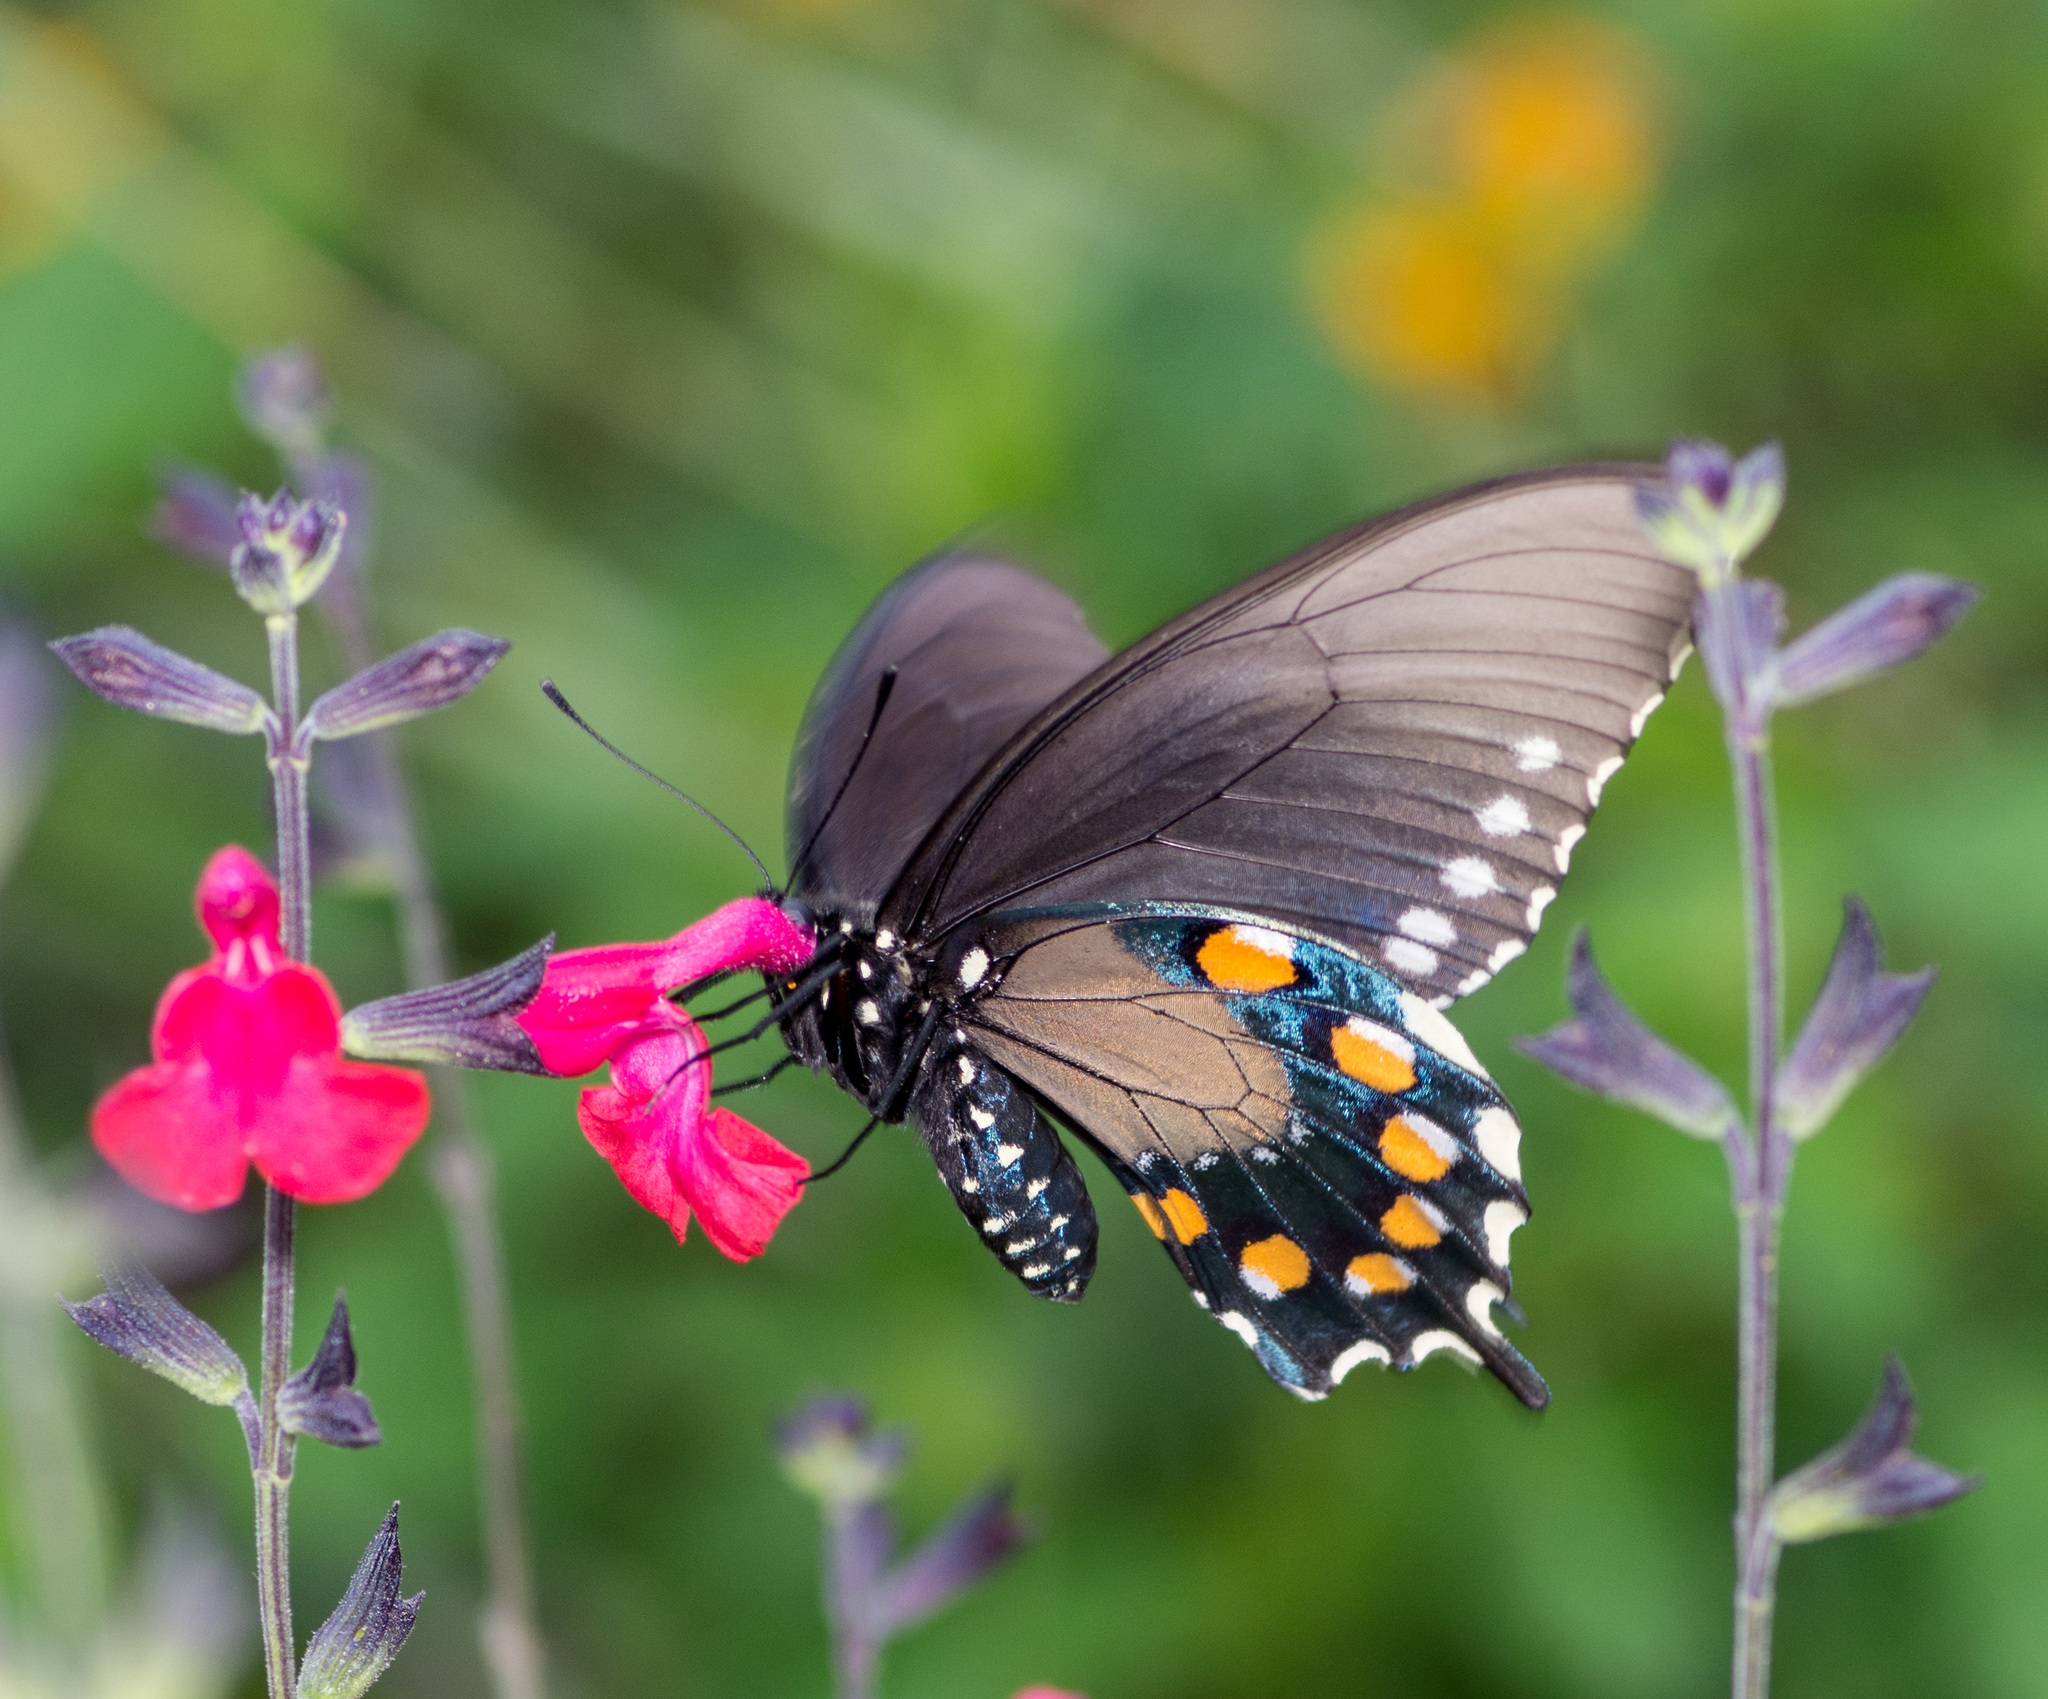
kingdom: Animalia
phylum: Arthropoda
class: Insecta
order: Lepidoptera
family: Papilionidae
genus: Battus
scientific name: Battus philenor
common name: Pipevine swallowtail
